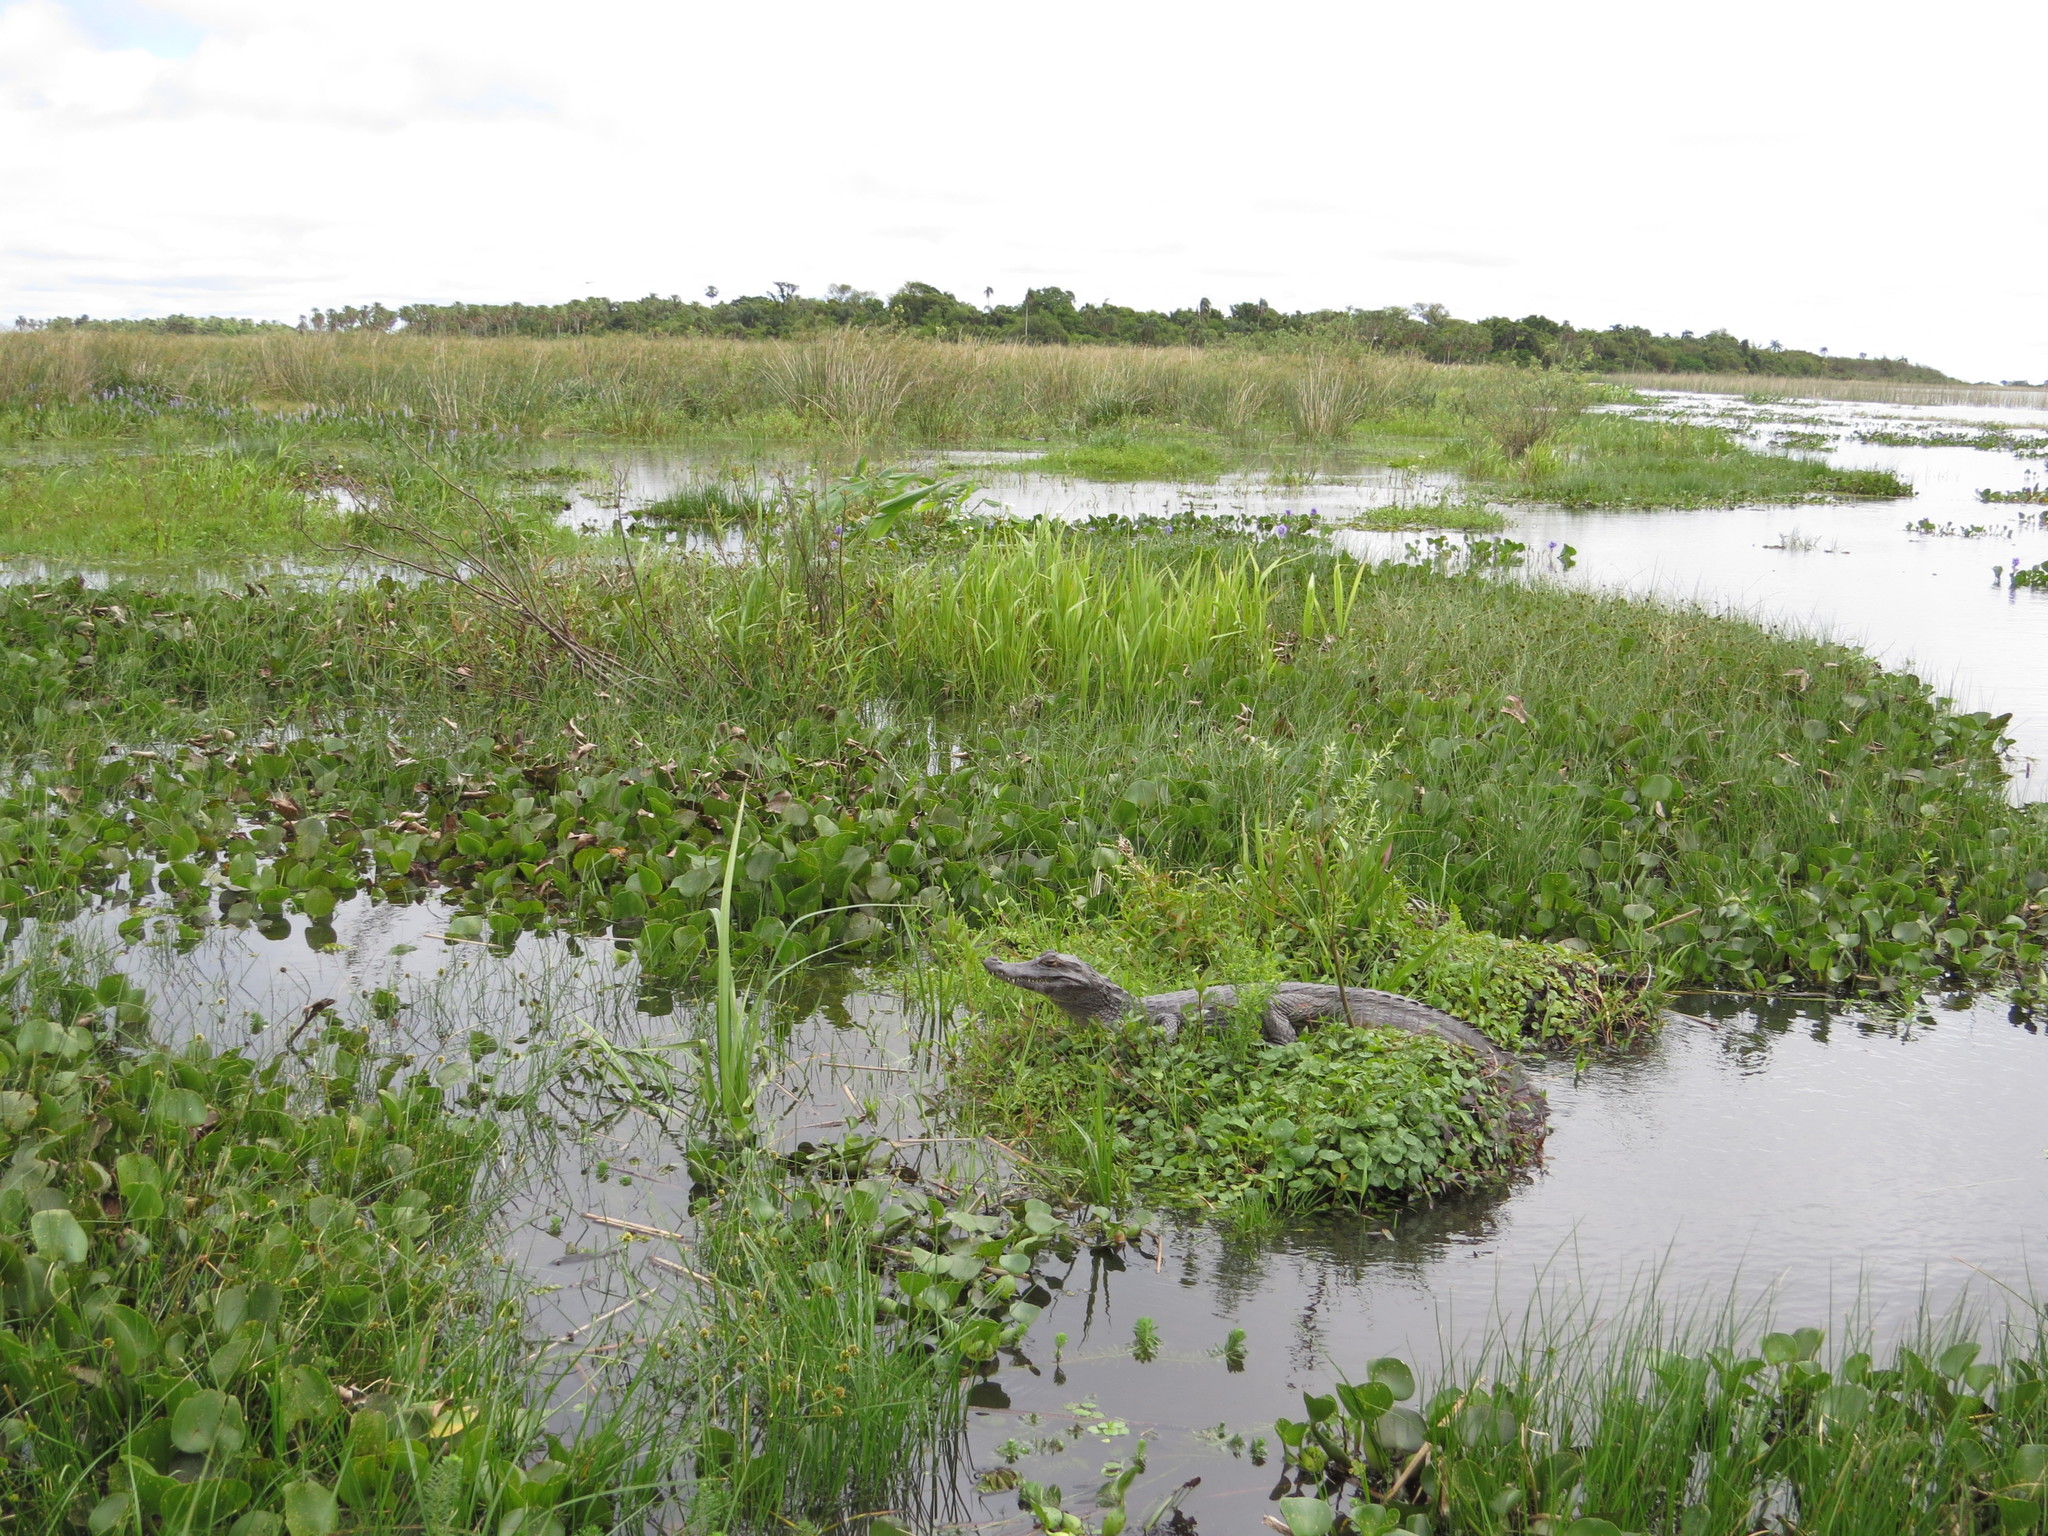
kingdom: Animalia
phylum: Chordata
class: Crocodylia
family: Alligatoridae
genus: Caiman
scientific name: Caiman yacare
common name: Yacare caiman
